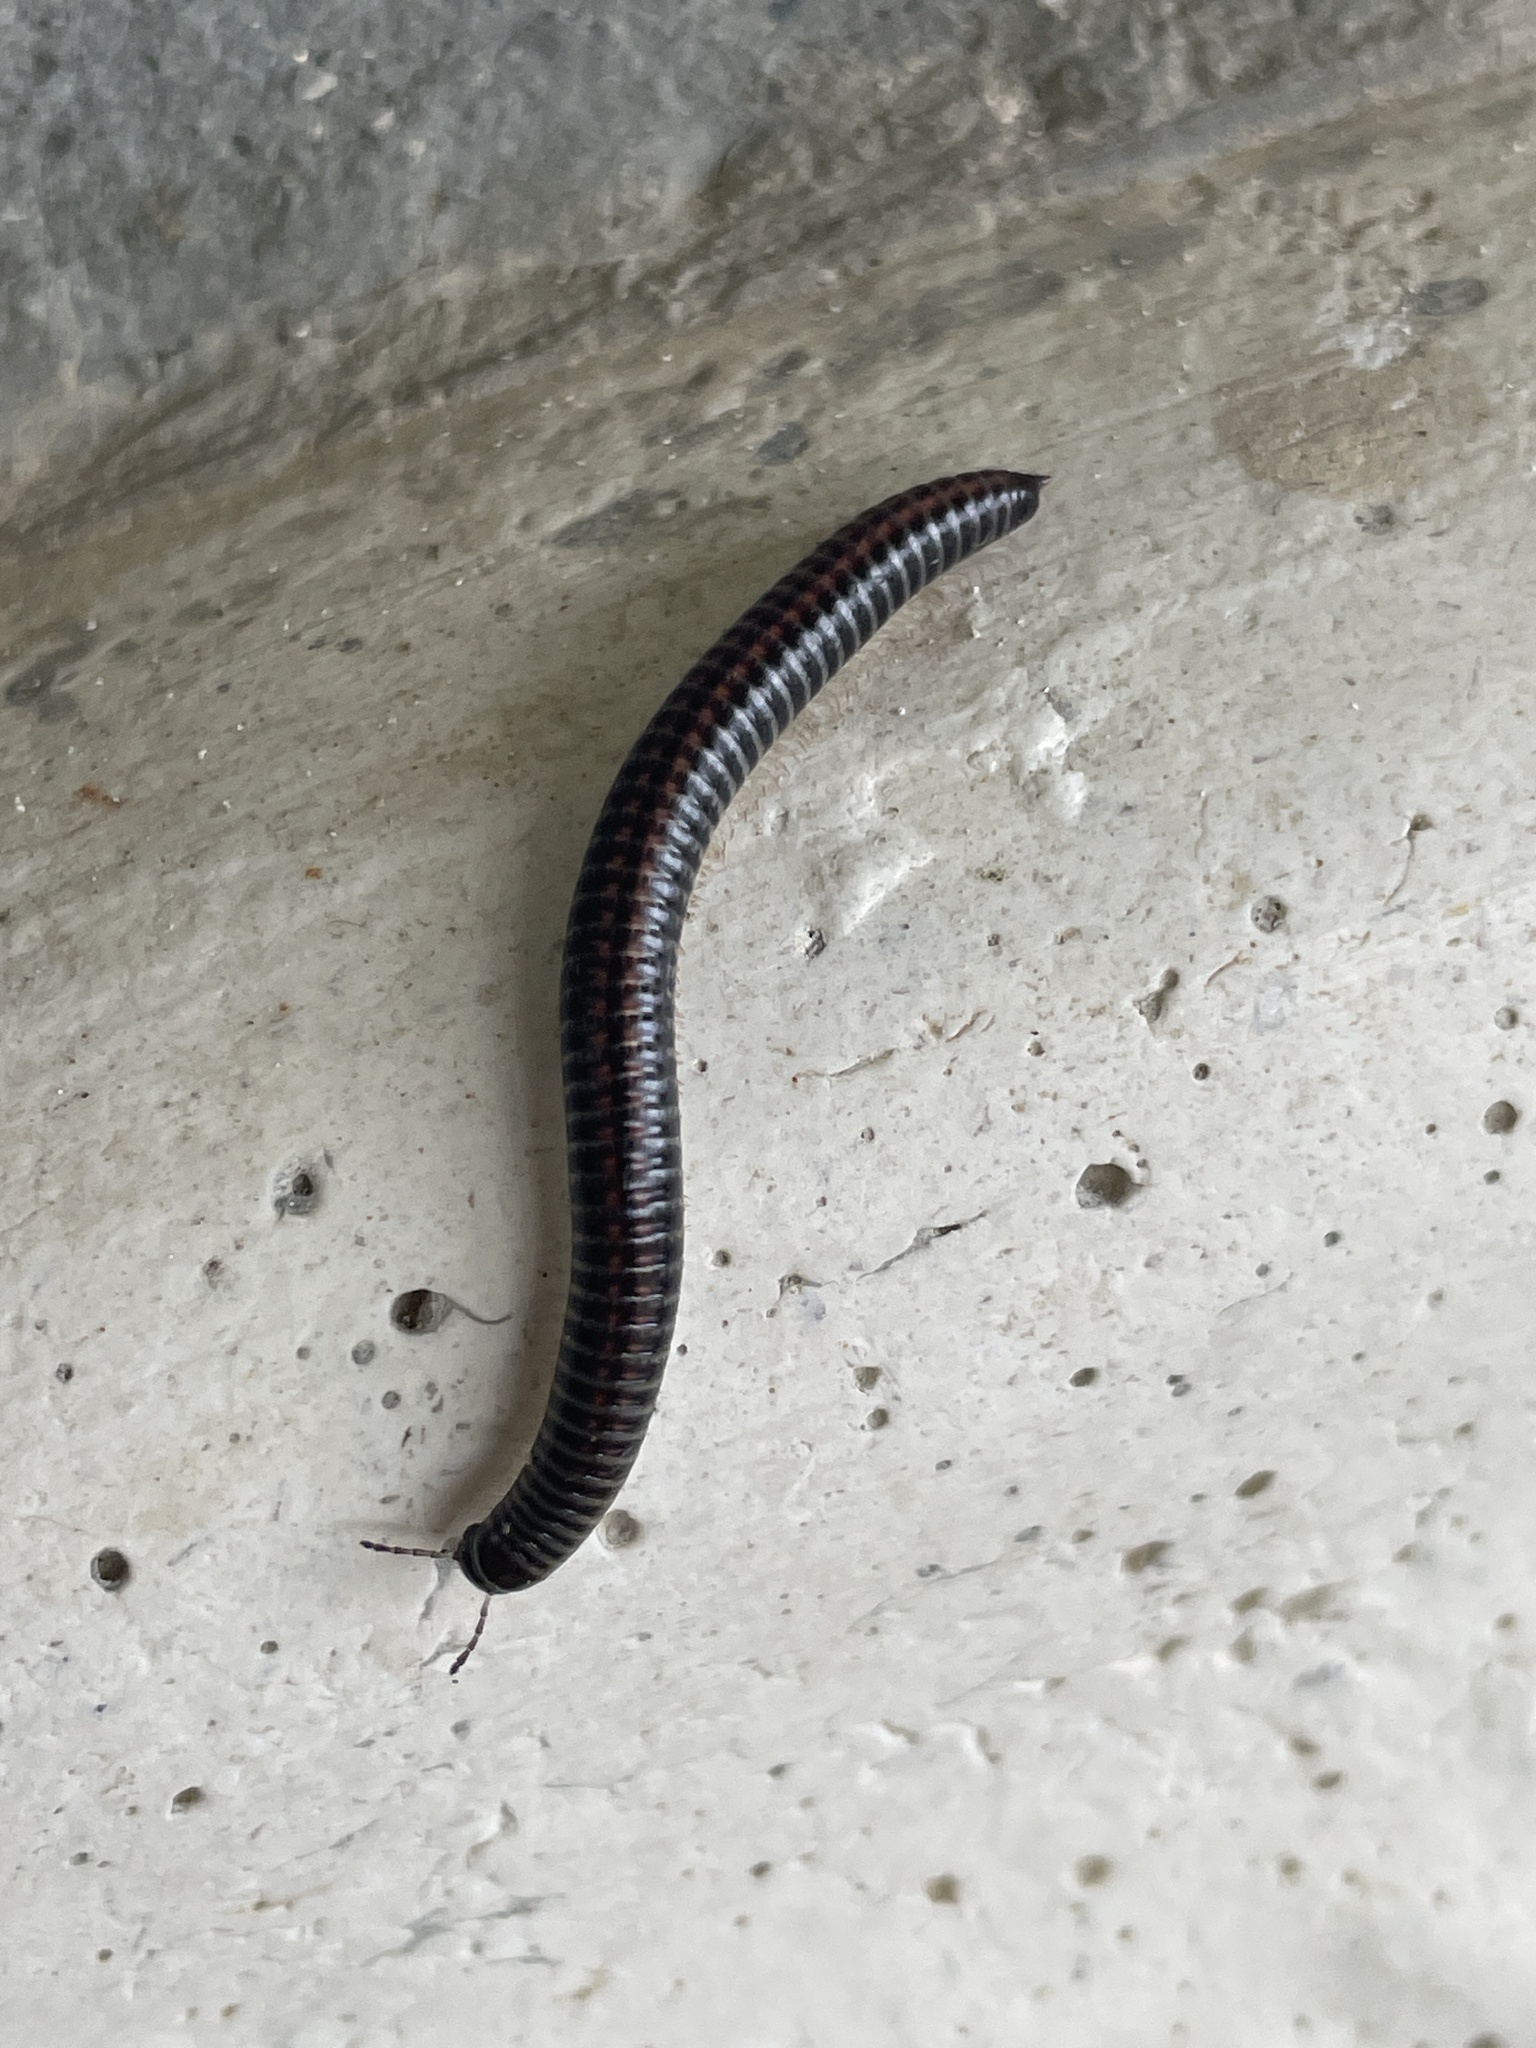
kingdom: Animalia
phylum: Arthropoda
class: Diplopoda
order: Julida
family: Julidae
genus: Ommatoiulus
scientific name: Ommatoiulus sabulosus
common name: Striped millipede
